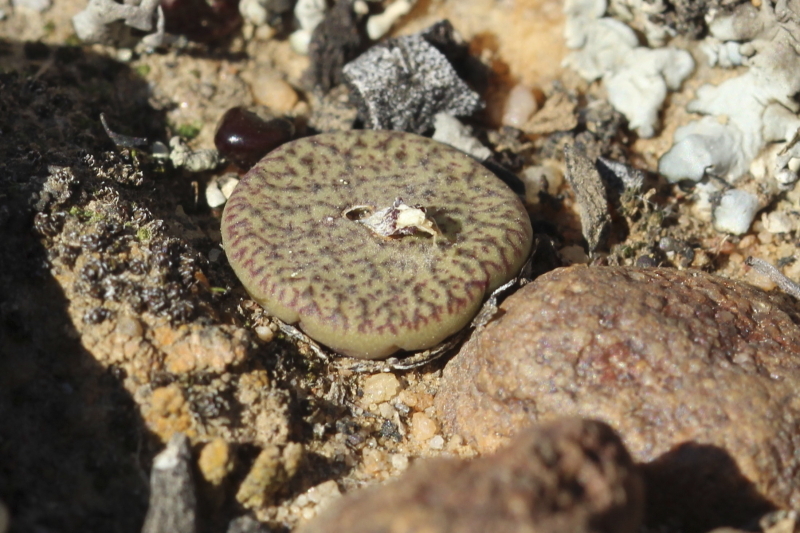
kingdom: Plantae
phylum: Tracheophyta
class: Magnoliopsida
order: Caryophyllales
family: Aizoaceae
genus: Conophytum
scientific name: Conophytum obcordellum
